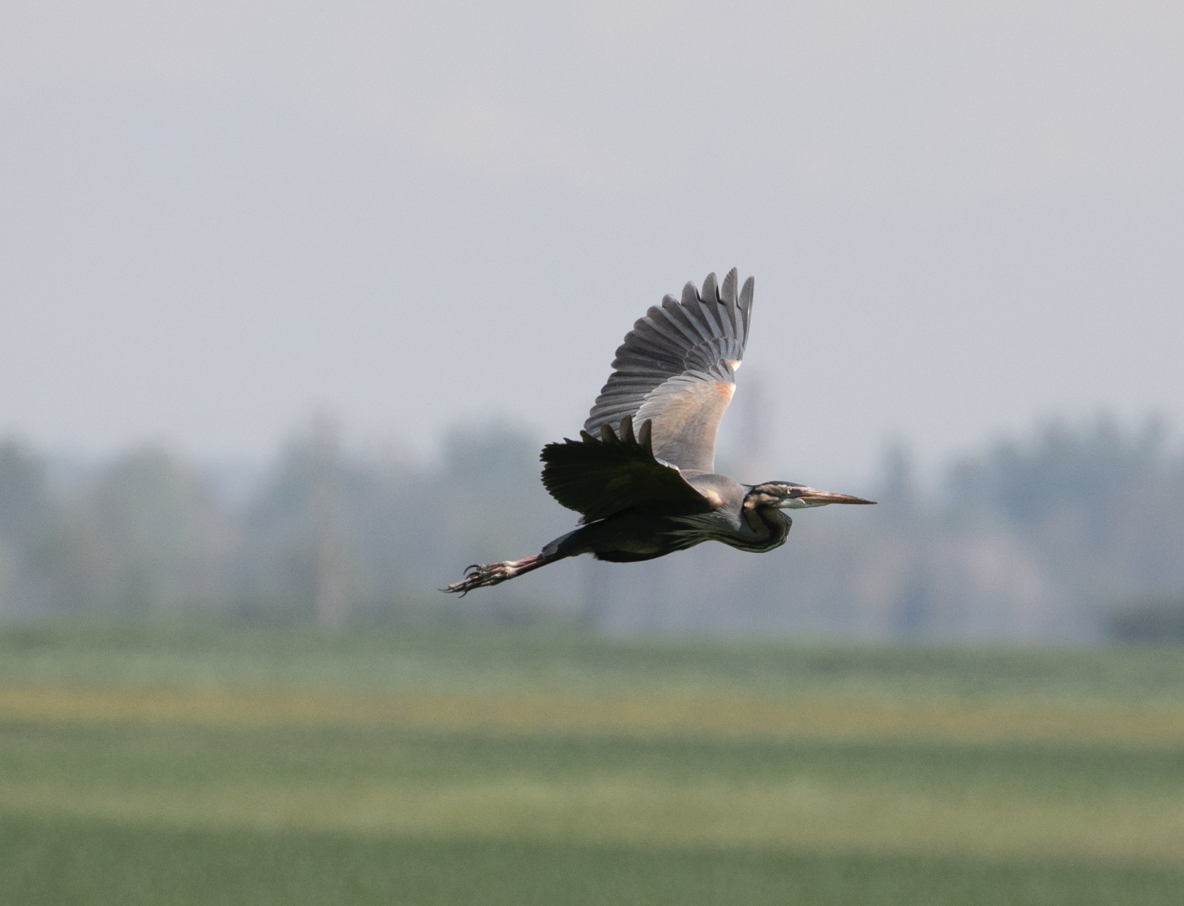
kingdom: Animalia
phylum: Chordata
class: Aves
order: Pelecaniformes
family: Ardeidae
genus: Ardea
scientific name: Ardea purpurea
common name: Purple heron
